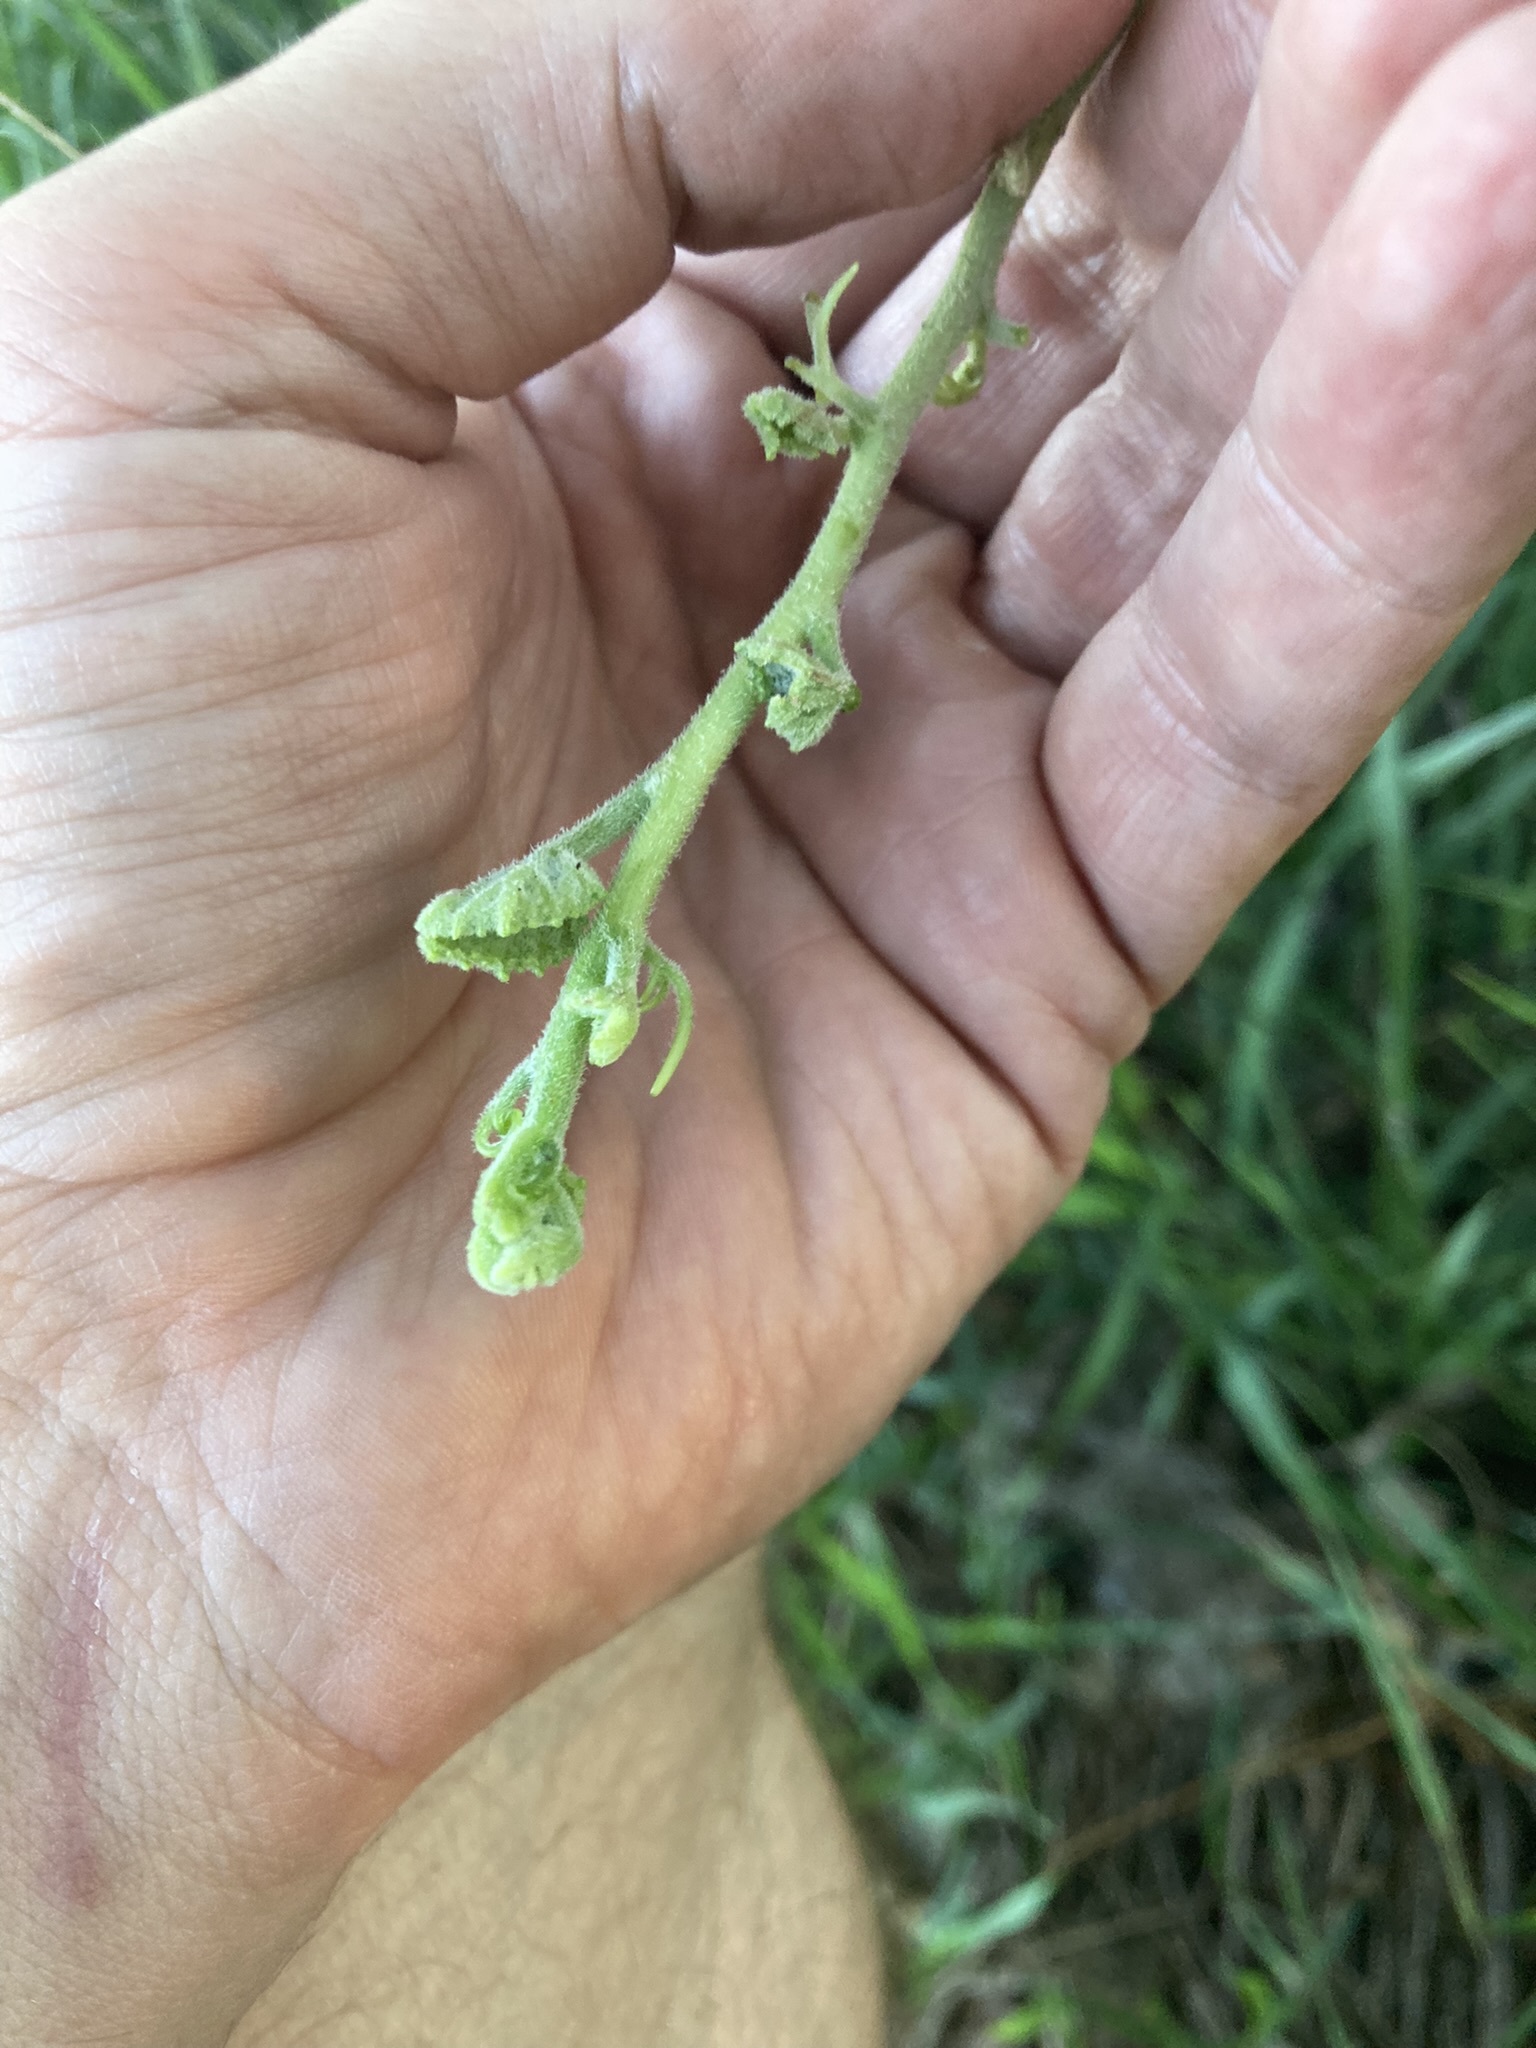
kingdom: Plantae
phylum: Tracheophyta
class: Magnoliopsida
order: Cucurbitales
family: Cucurbitaceae
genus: Cucurbita
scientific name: Cucurbita foetidissima
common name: Buffalo gourd
